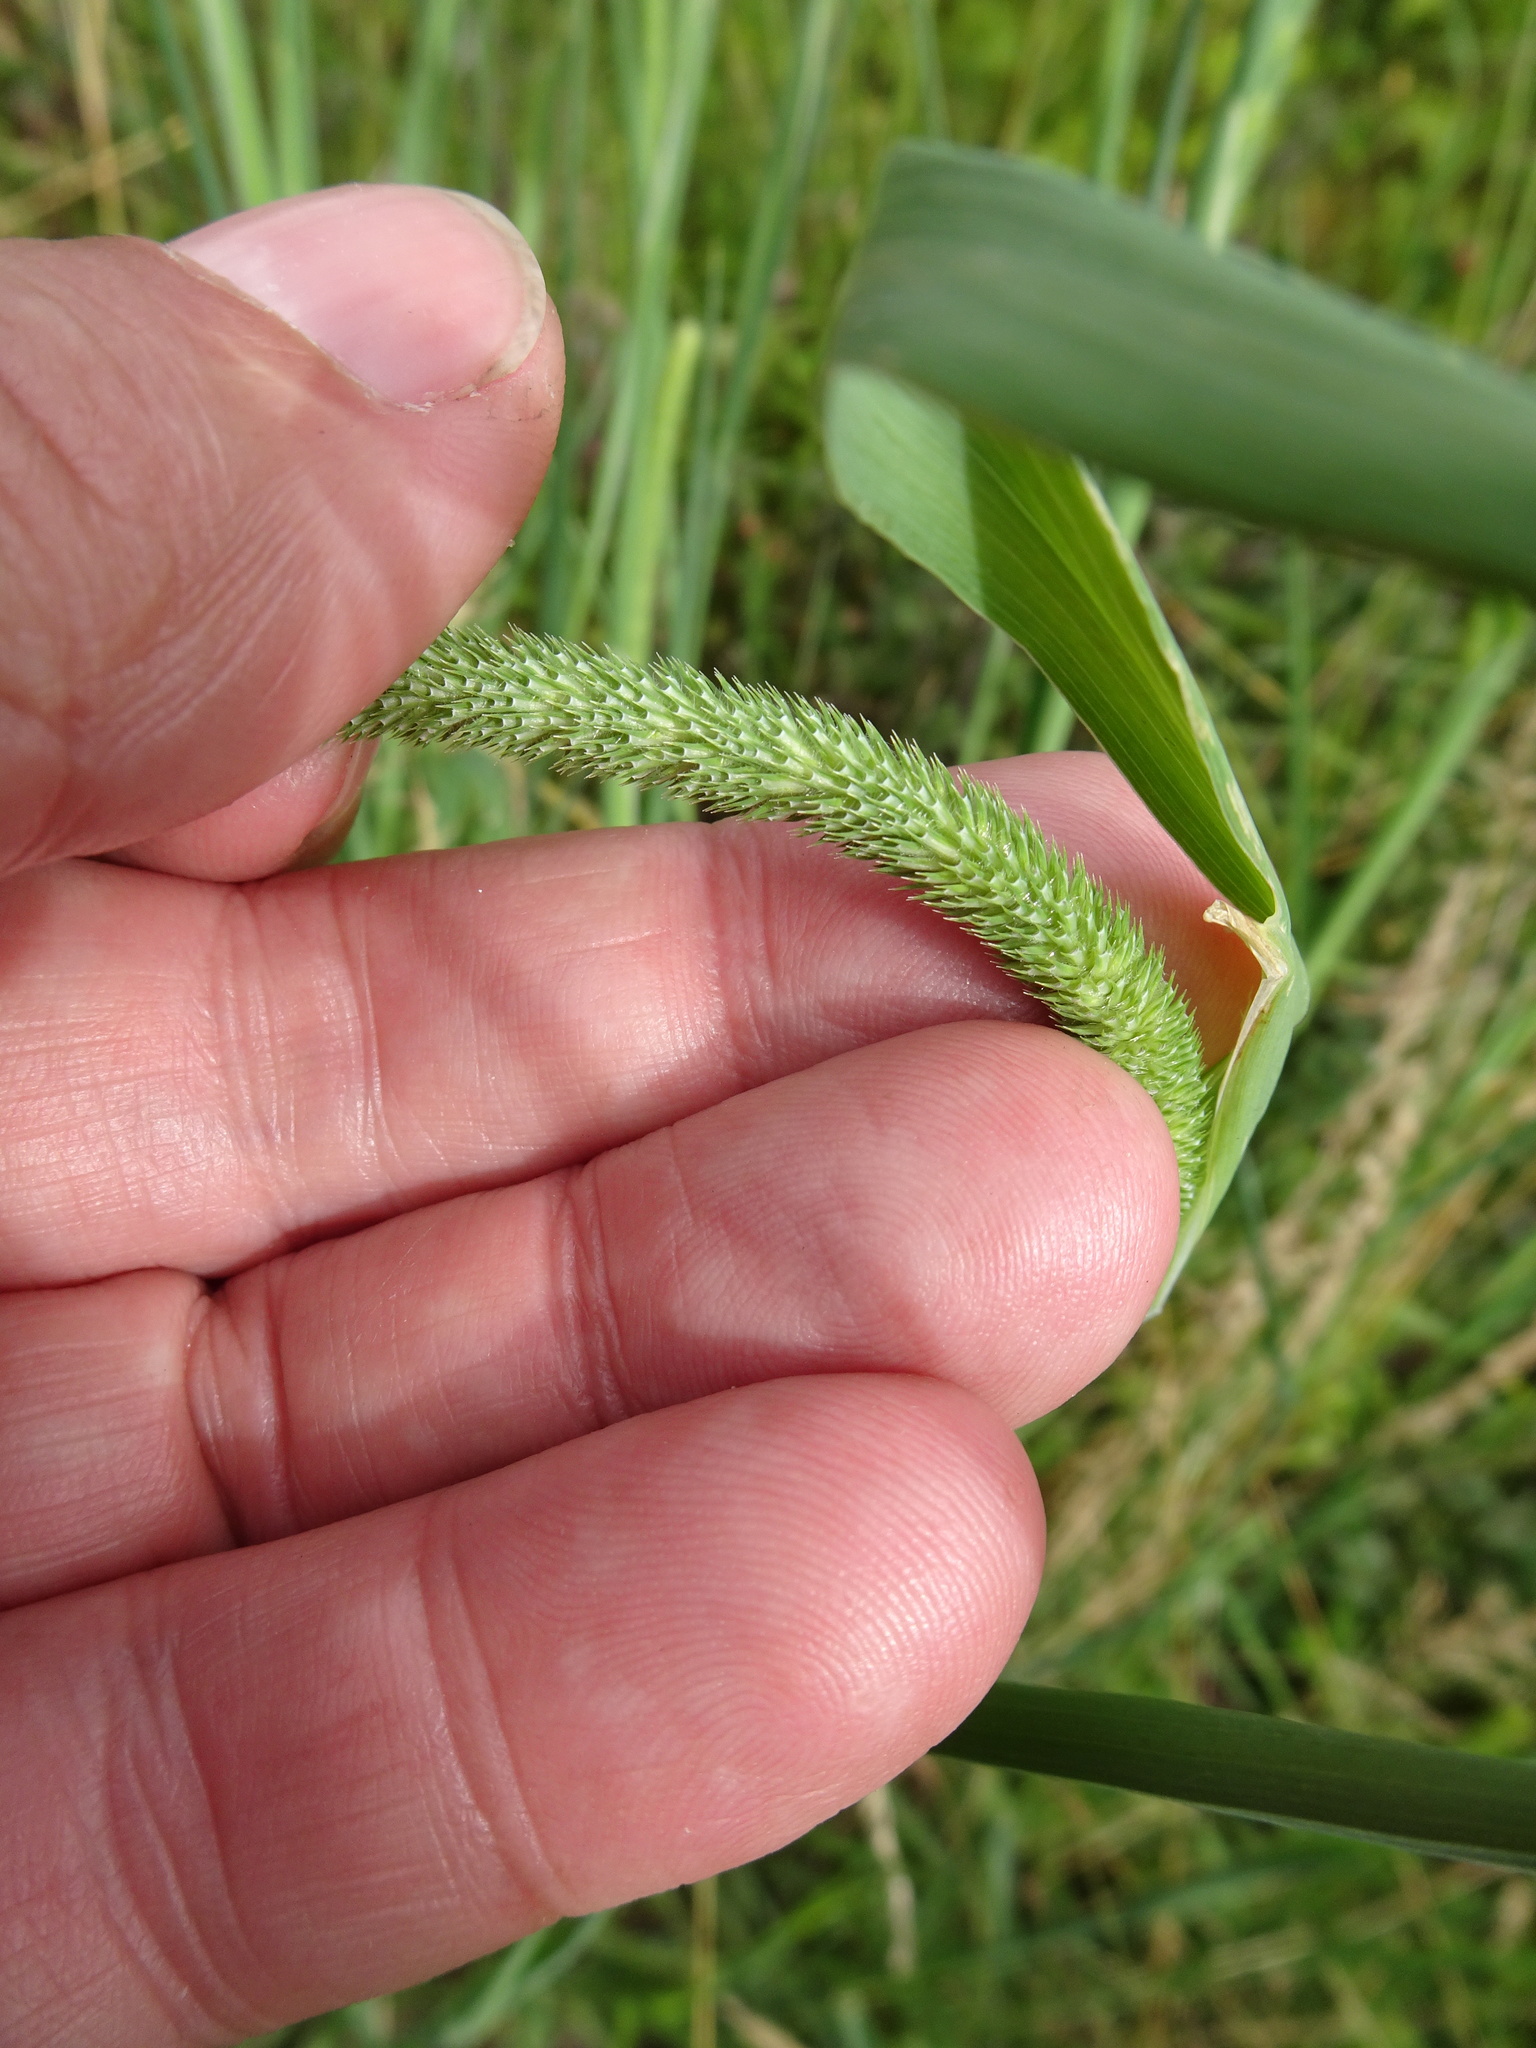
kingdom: Plantae
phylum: Tracheophyta
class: Liliopsida
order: Poales
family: Poaceae
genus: Phleum
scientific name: Phleum pratense
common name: Timothy grass
